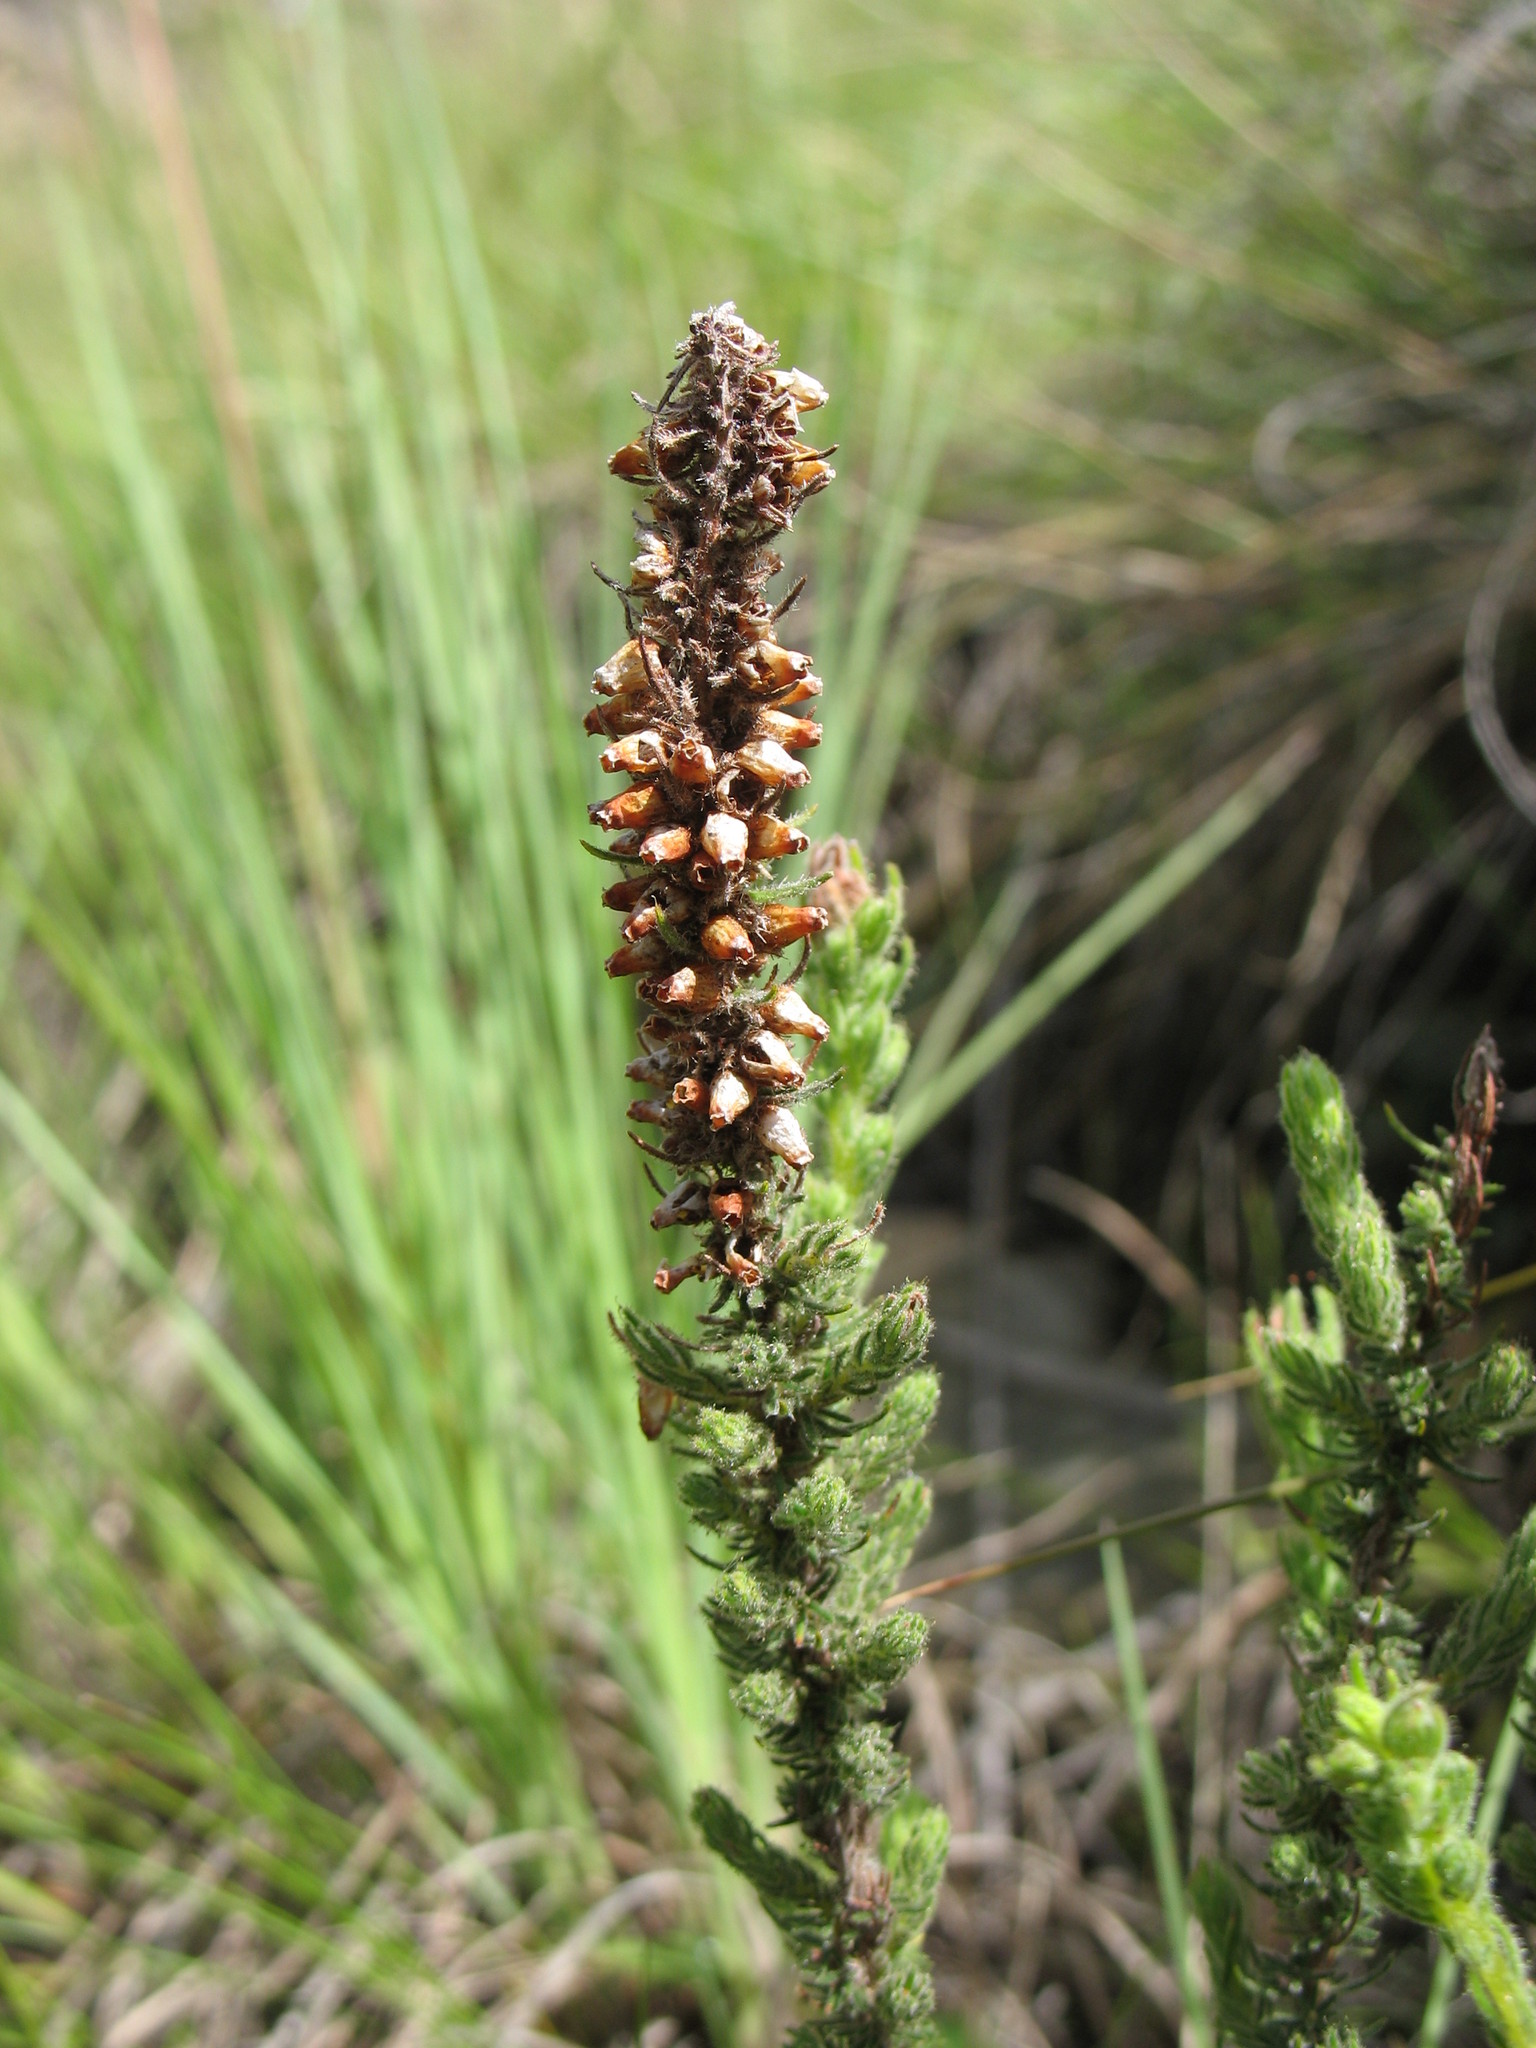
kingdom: Plantae
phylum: Tracheophyta
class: Magnoliopsida
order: Ericales
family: Ericaceae
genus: Erica
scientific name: Erica alopecurus
